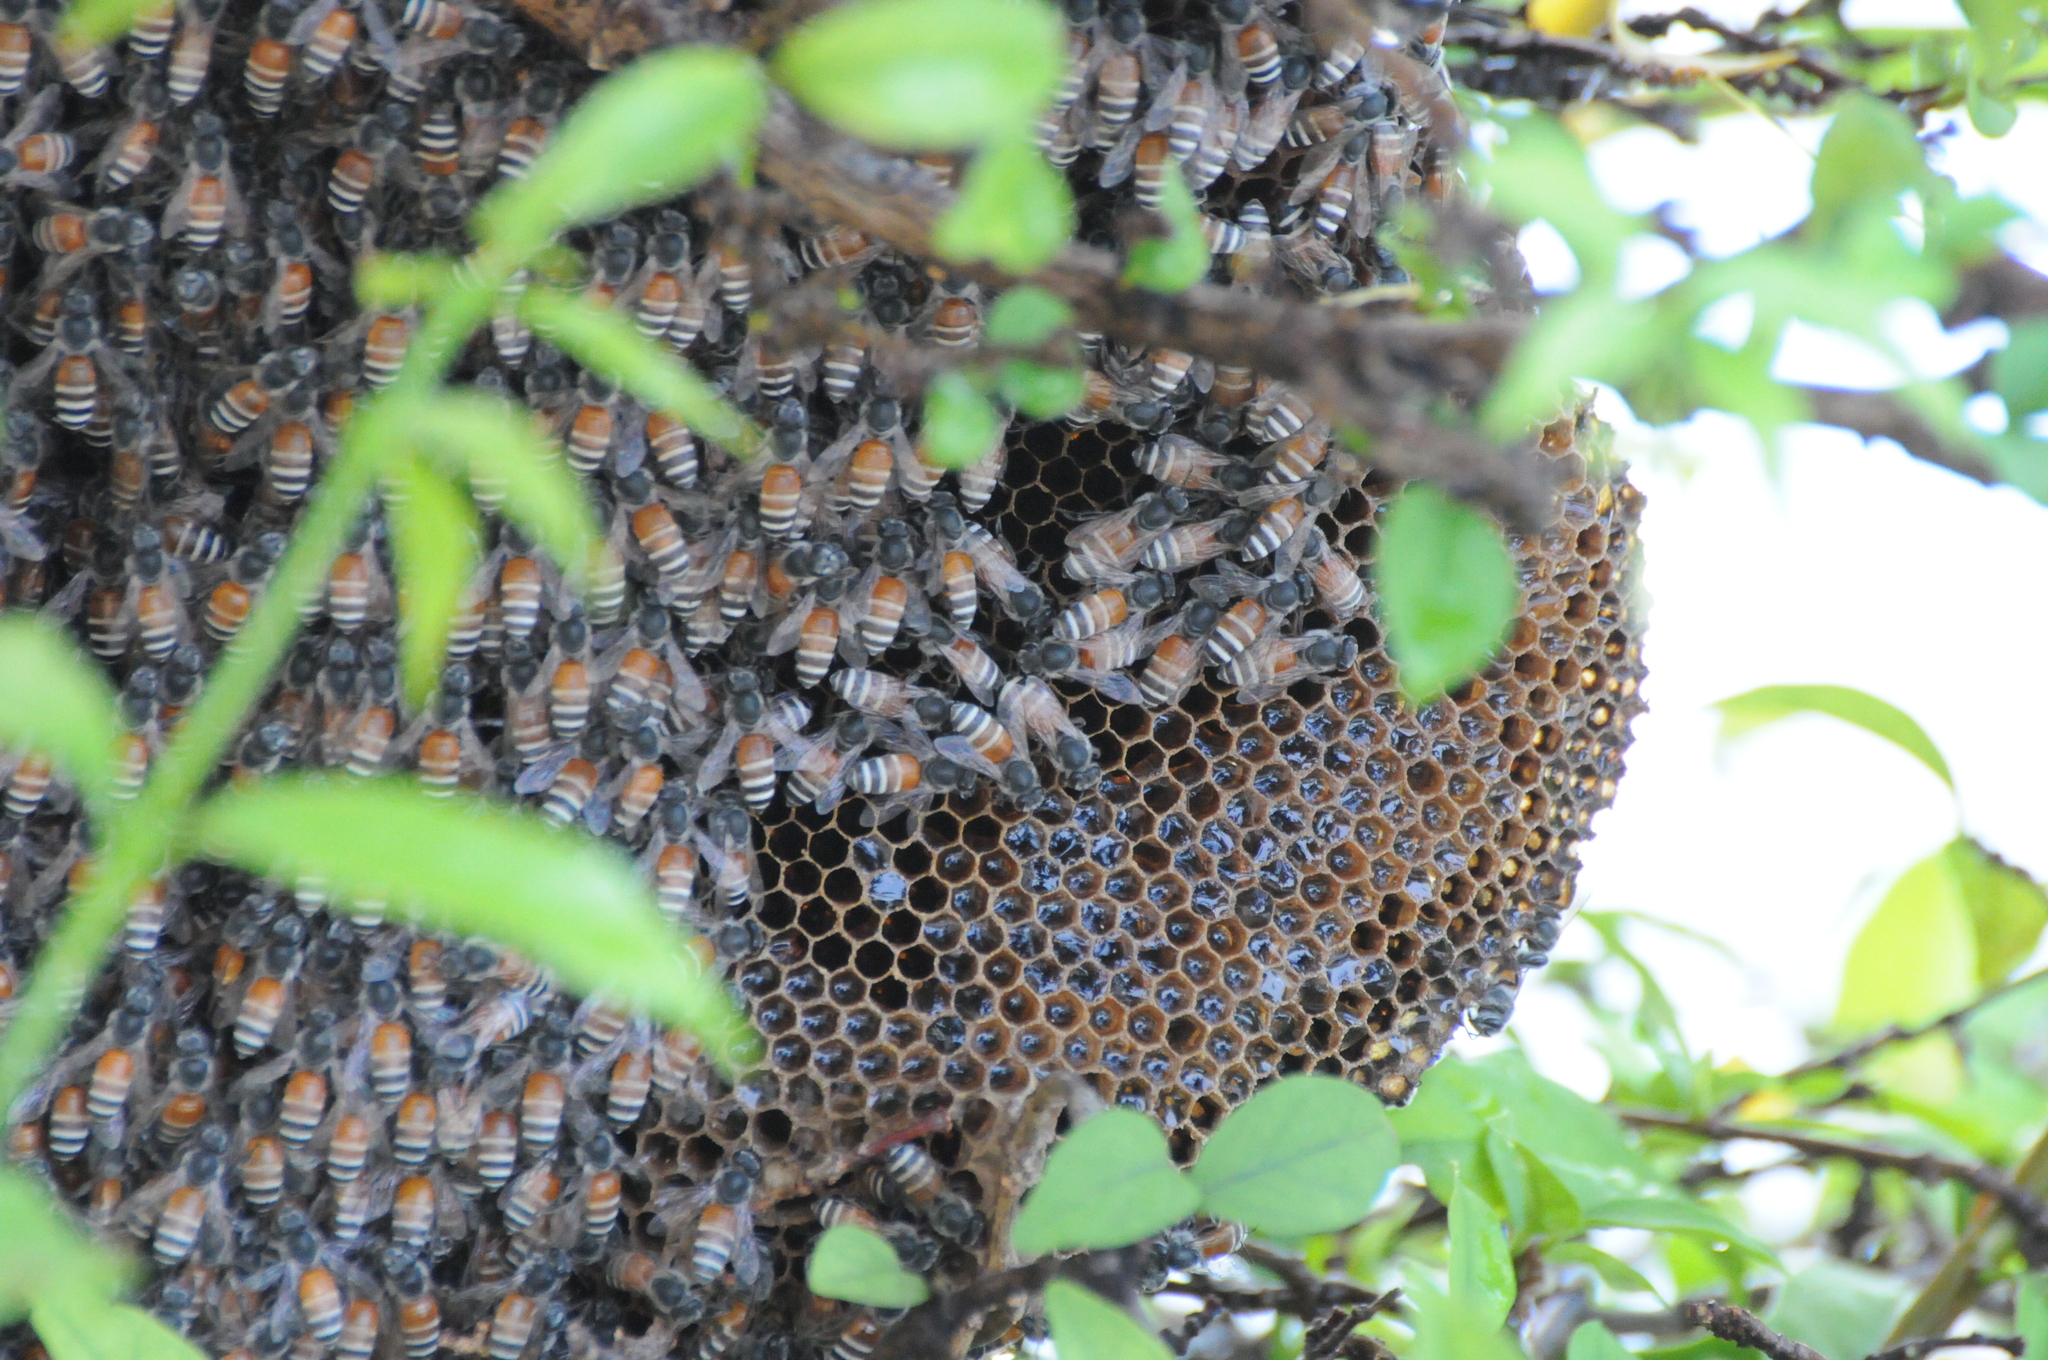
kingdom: Animalia
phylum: Arthropoda
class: Insecta
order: Hymenoptera
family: Apidae
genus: Apis
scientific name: Apis florea
